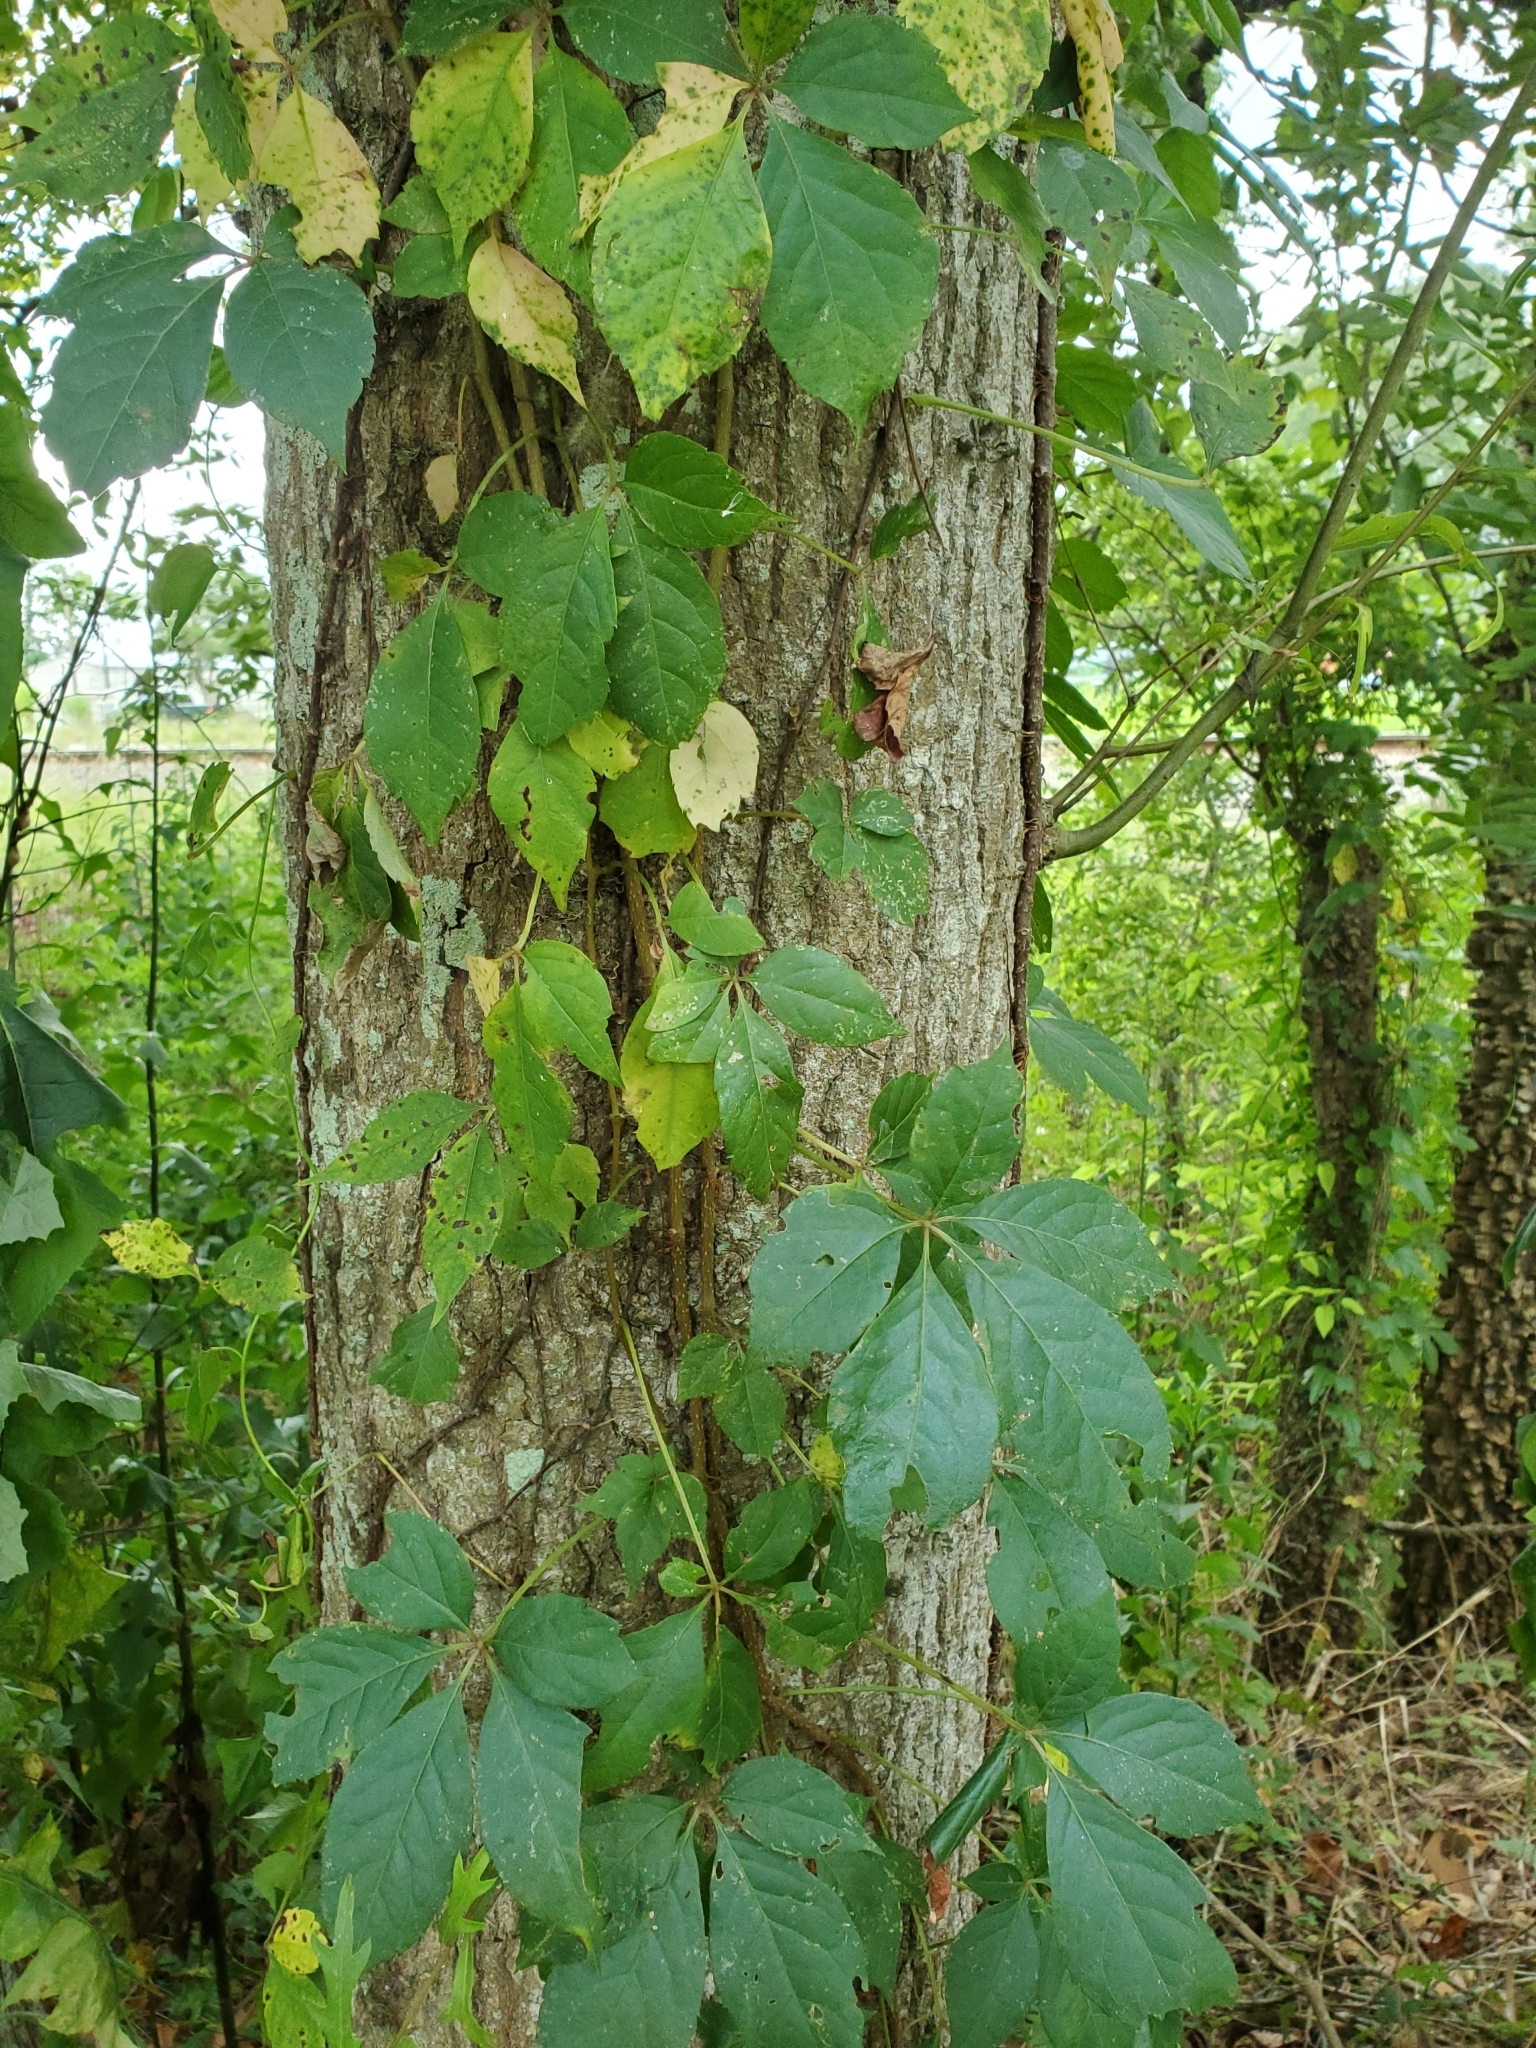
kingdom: Plantae
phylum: Tracheophyta
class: Magnoliopsida
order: Vitales
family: Vitaceae
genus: Parthenocissus
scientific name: Parthenocissus quinquefolia
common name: Virginia-creeper
